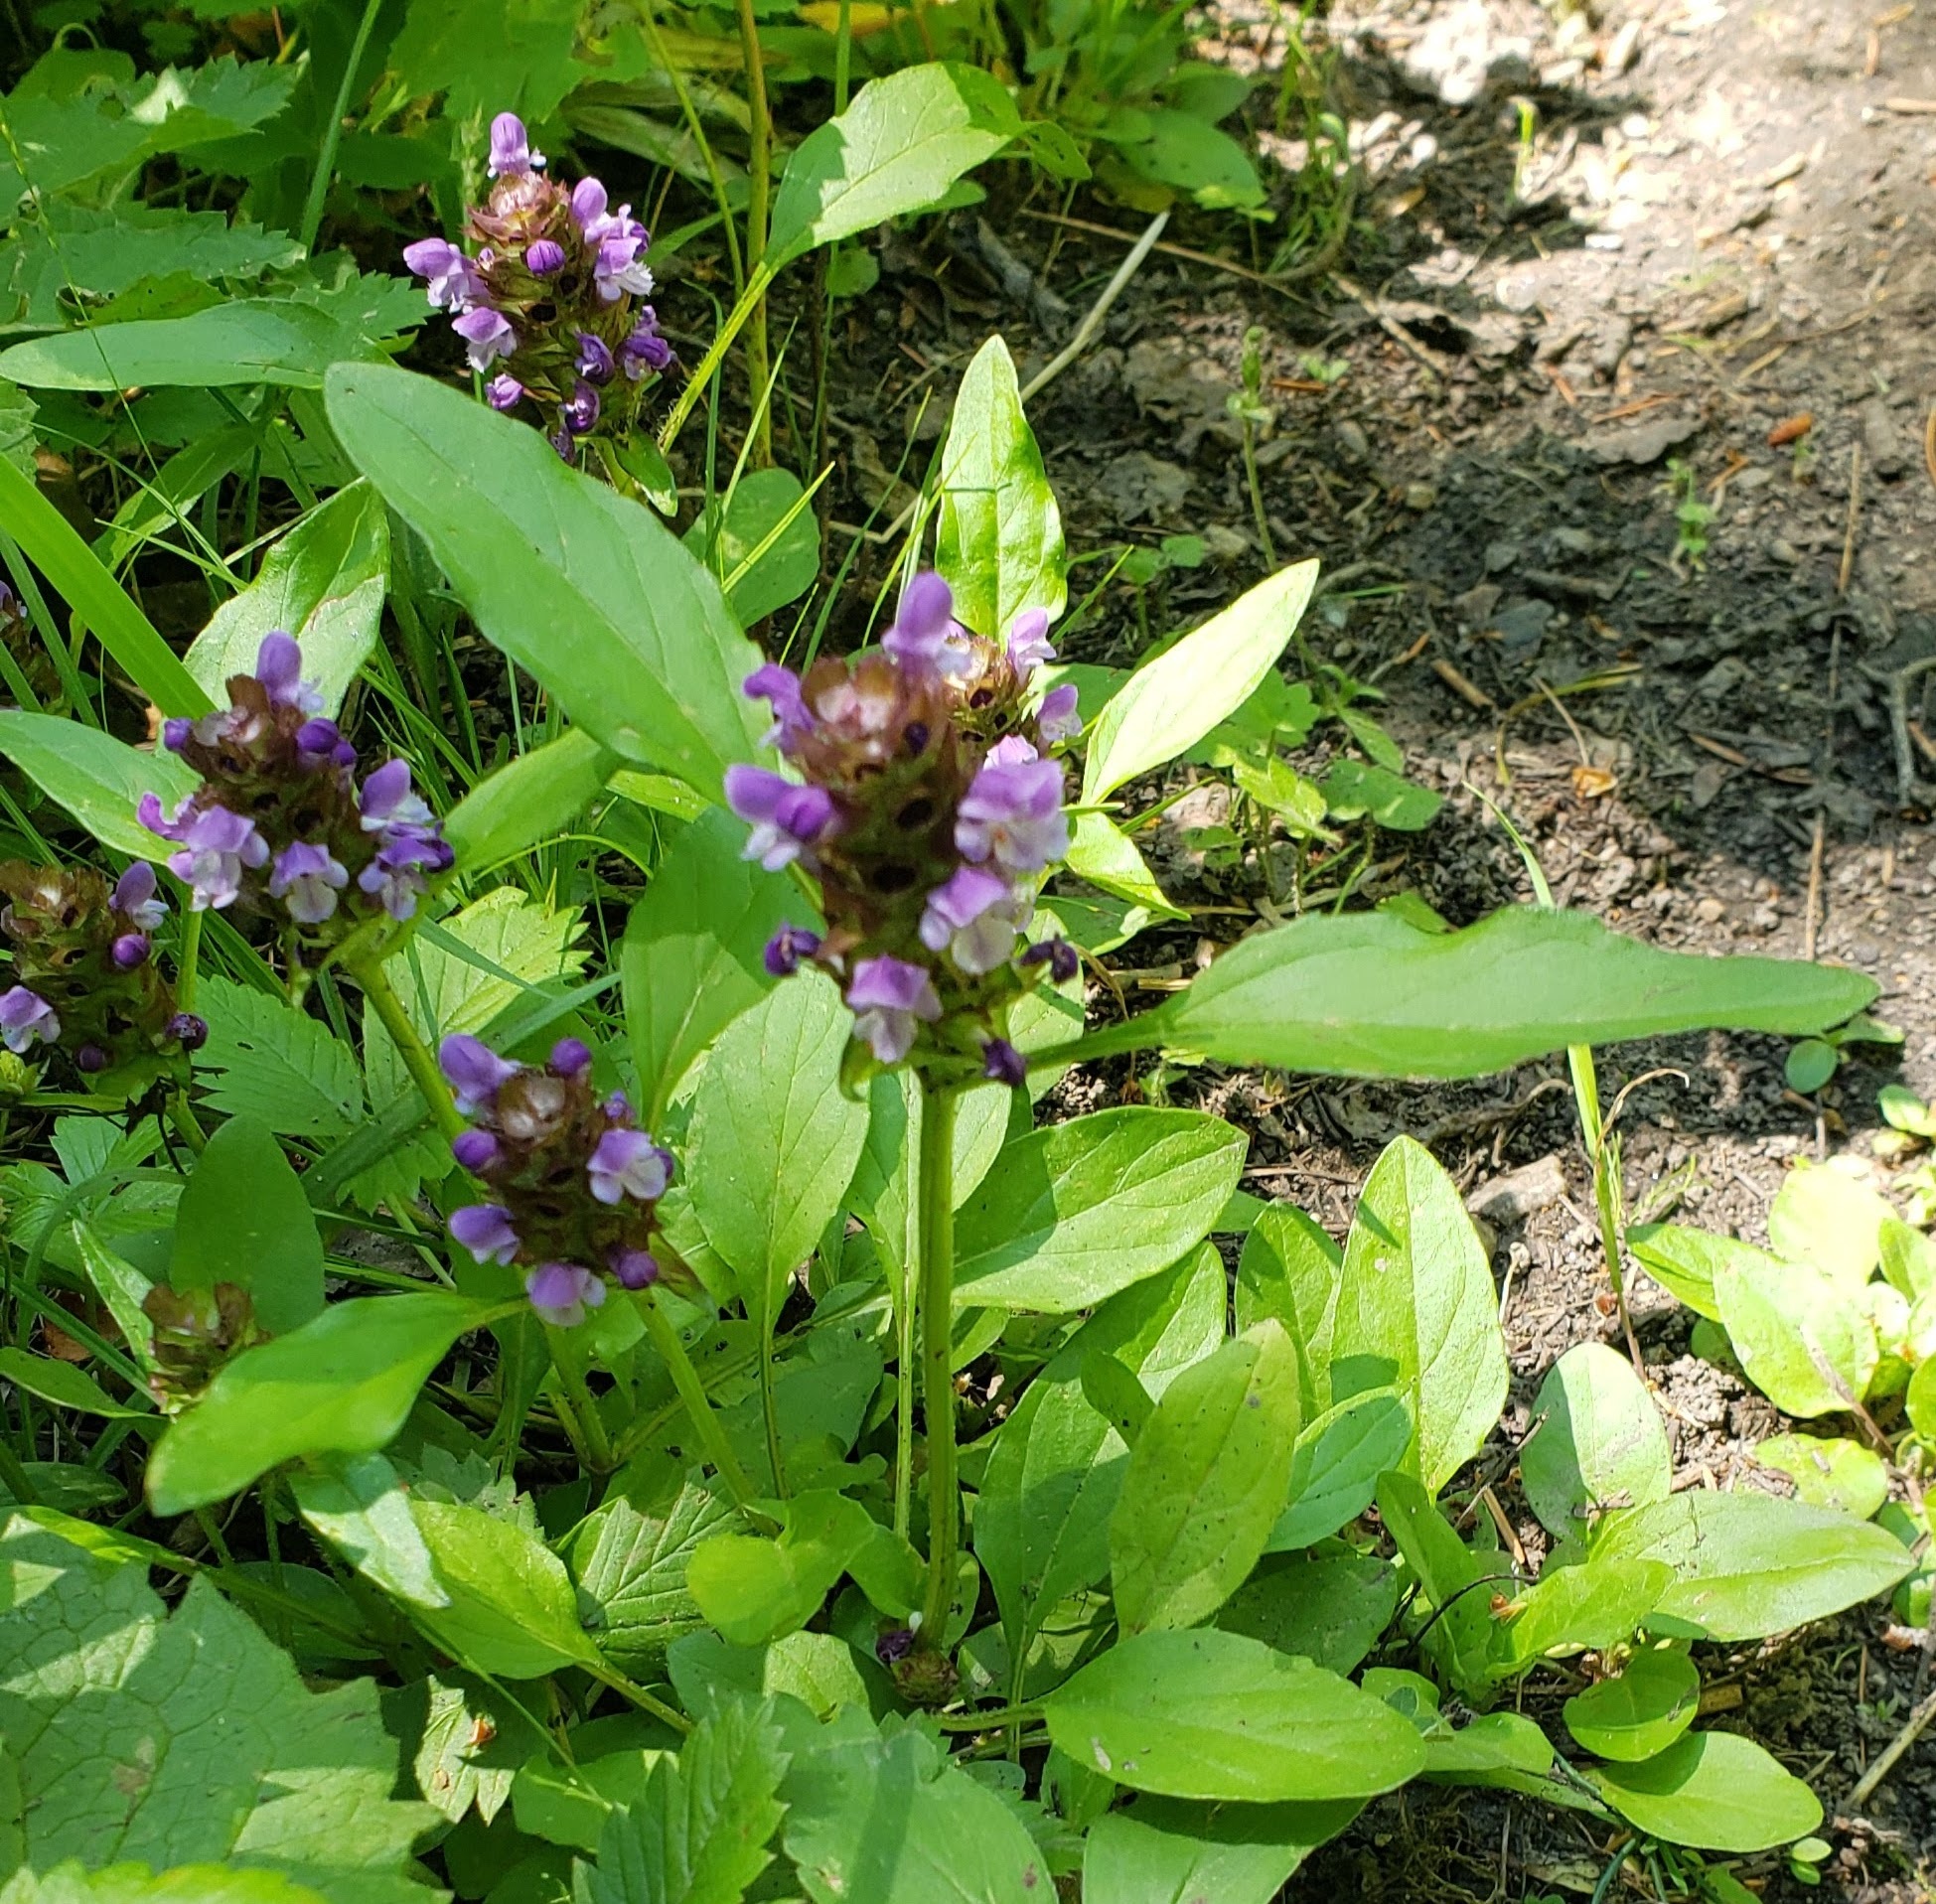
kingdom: Plantae
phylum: Tracheophyta
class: Magnoliopsida
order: Lamiales
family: Lamiaceae
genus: Prunella
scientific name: Prunella vulgaris
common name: Heal-all
